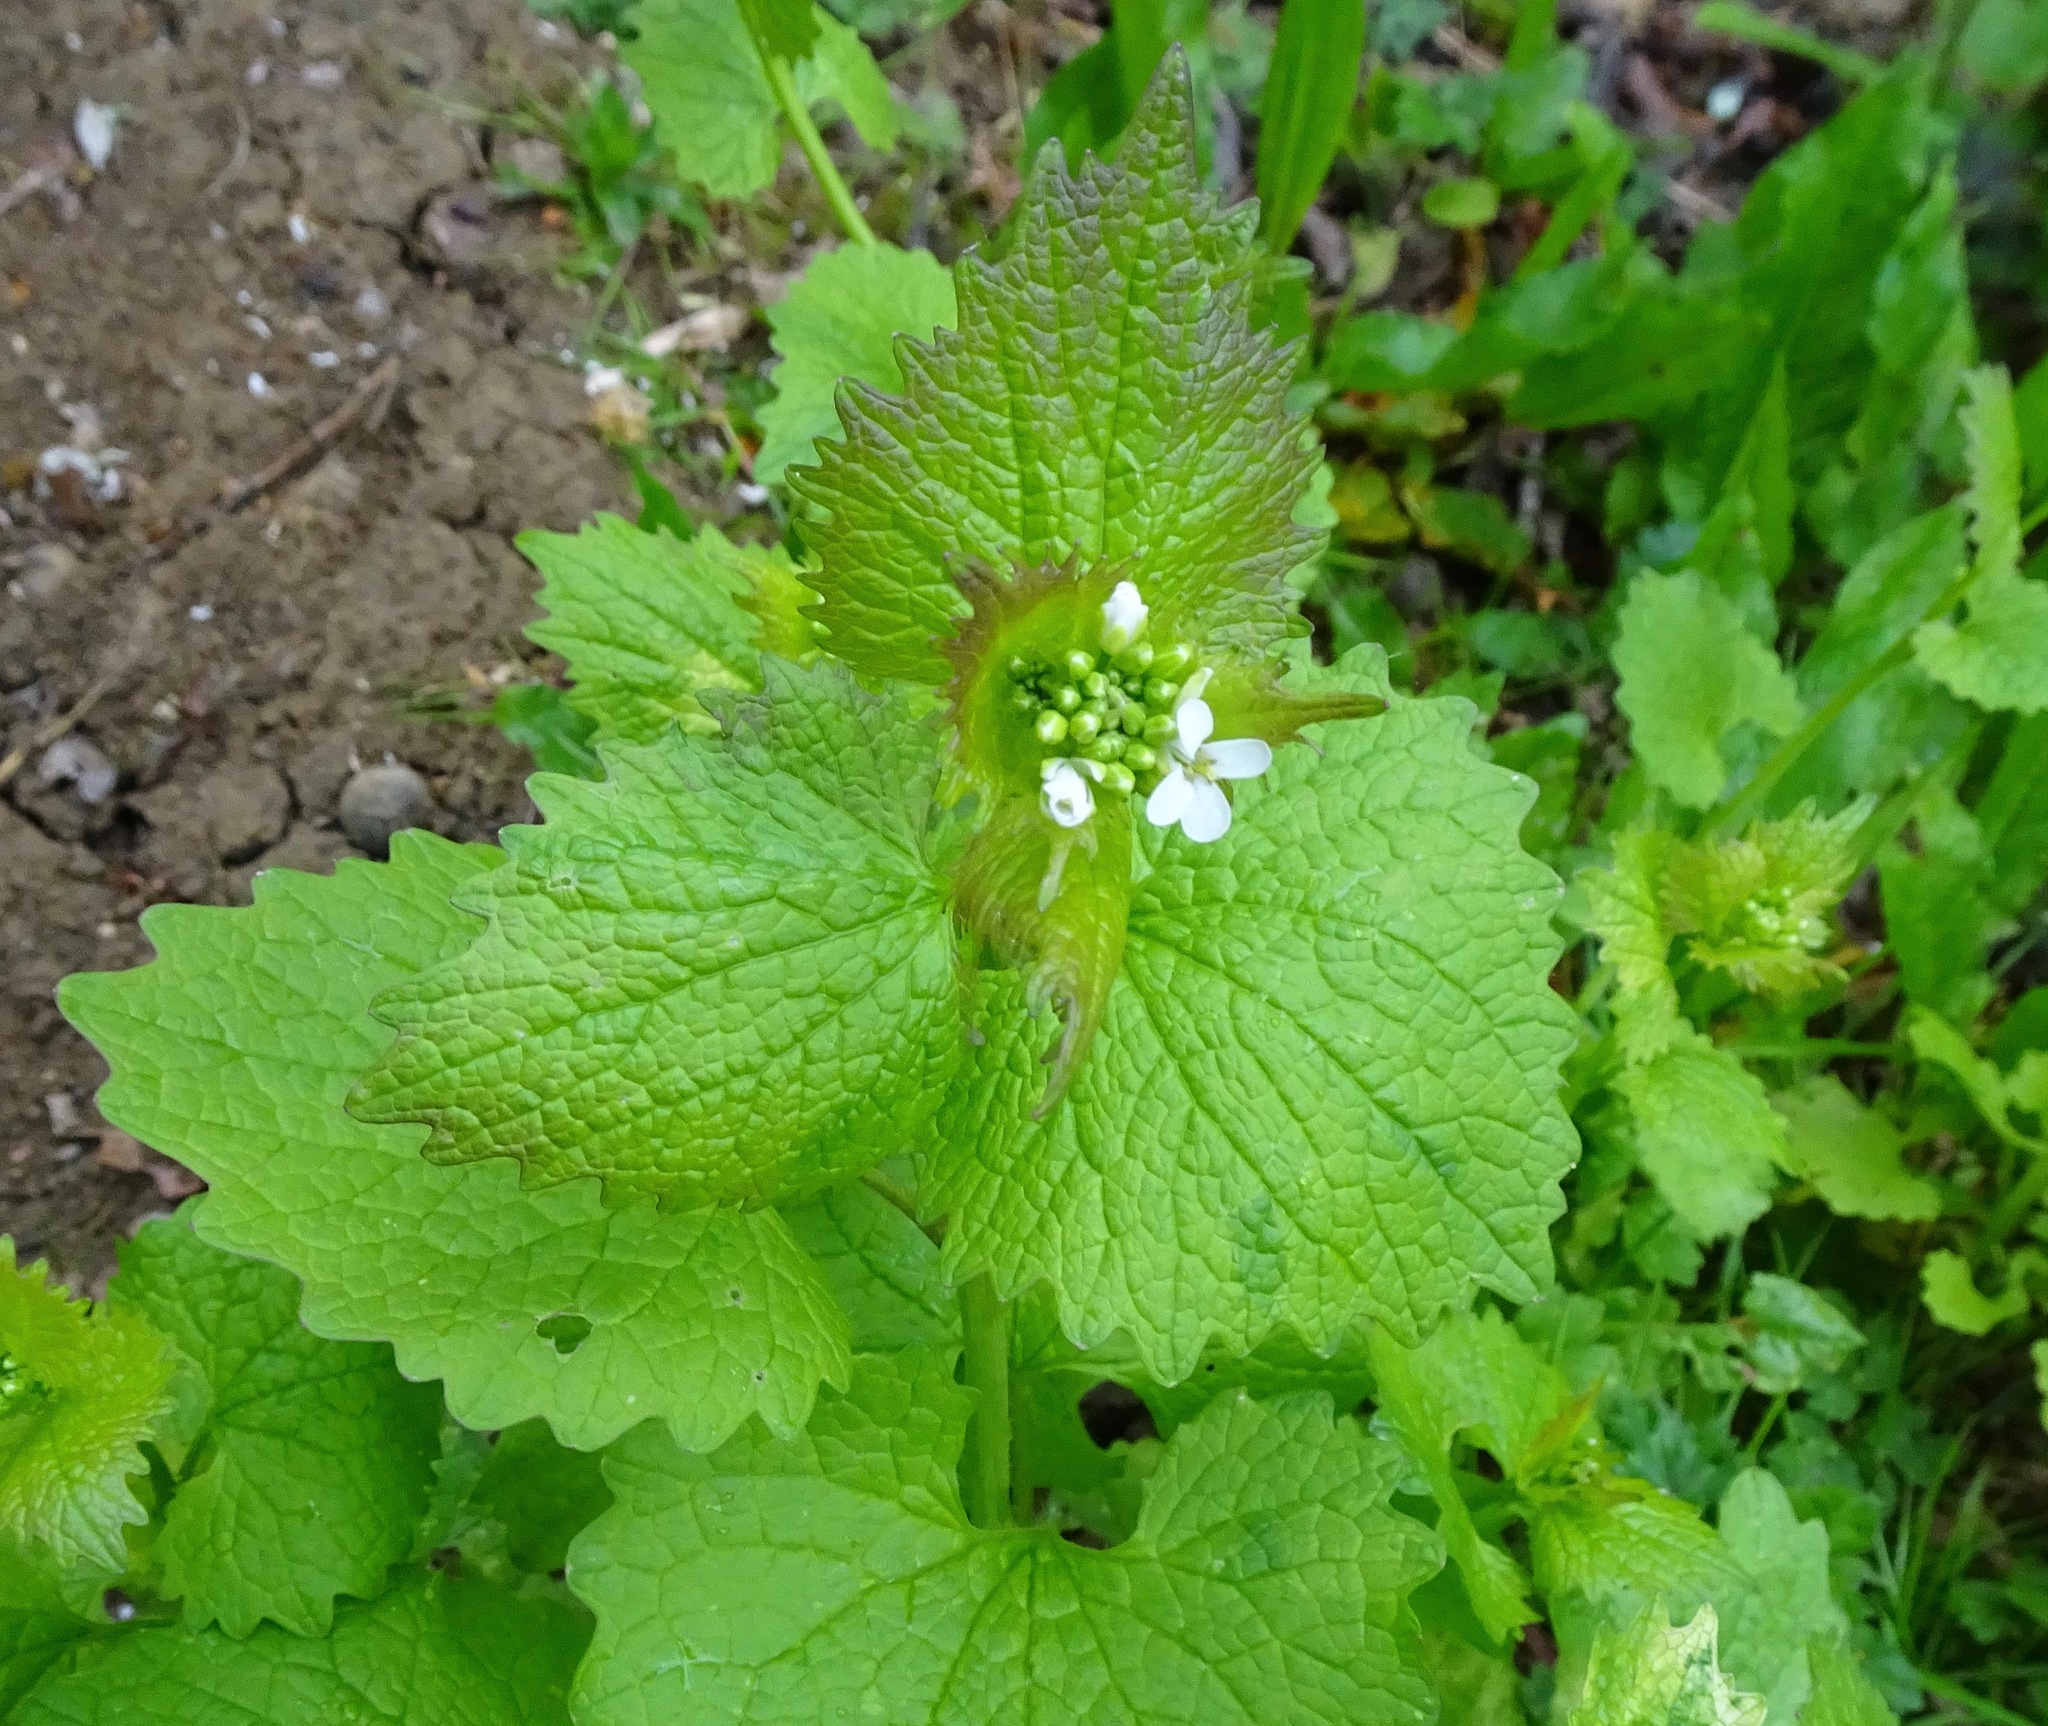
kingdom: Plantae
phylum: Tracheophyta
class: Magnoliopsida
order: Brassicales
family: Brassicaceae
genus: Alliaria
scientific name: Alliaria petiolata
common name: Garlic mustard
